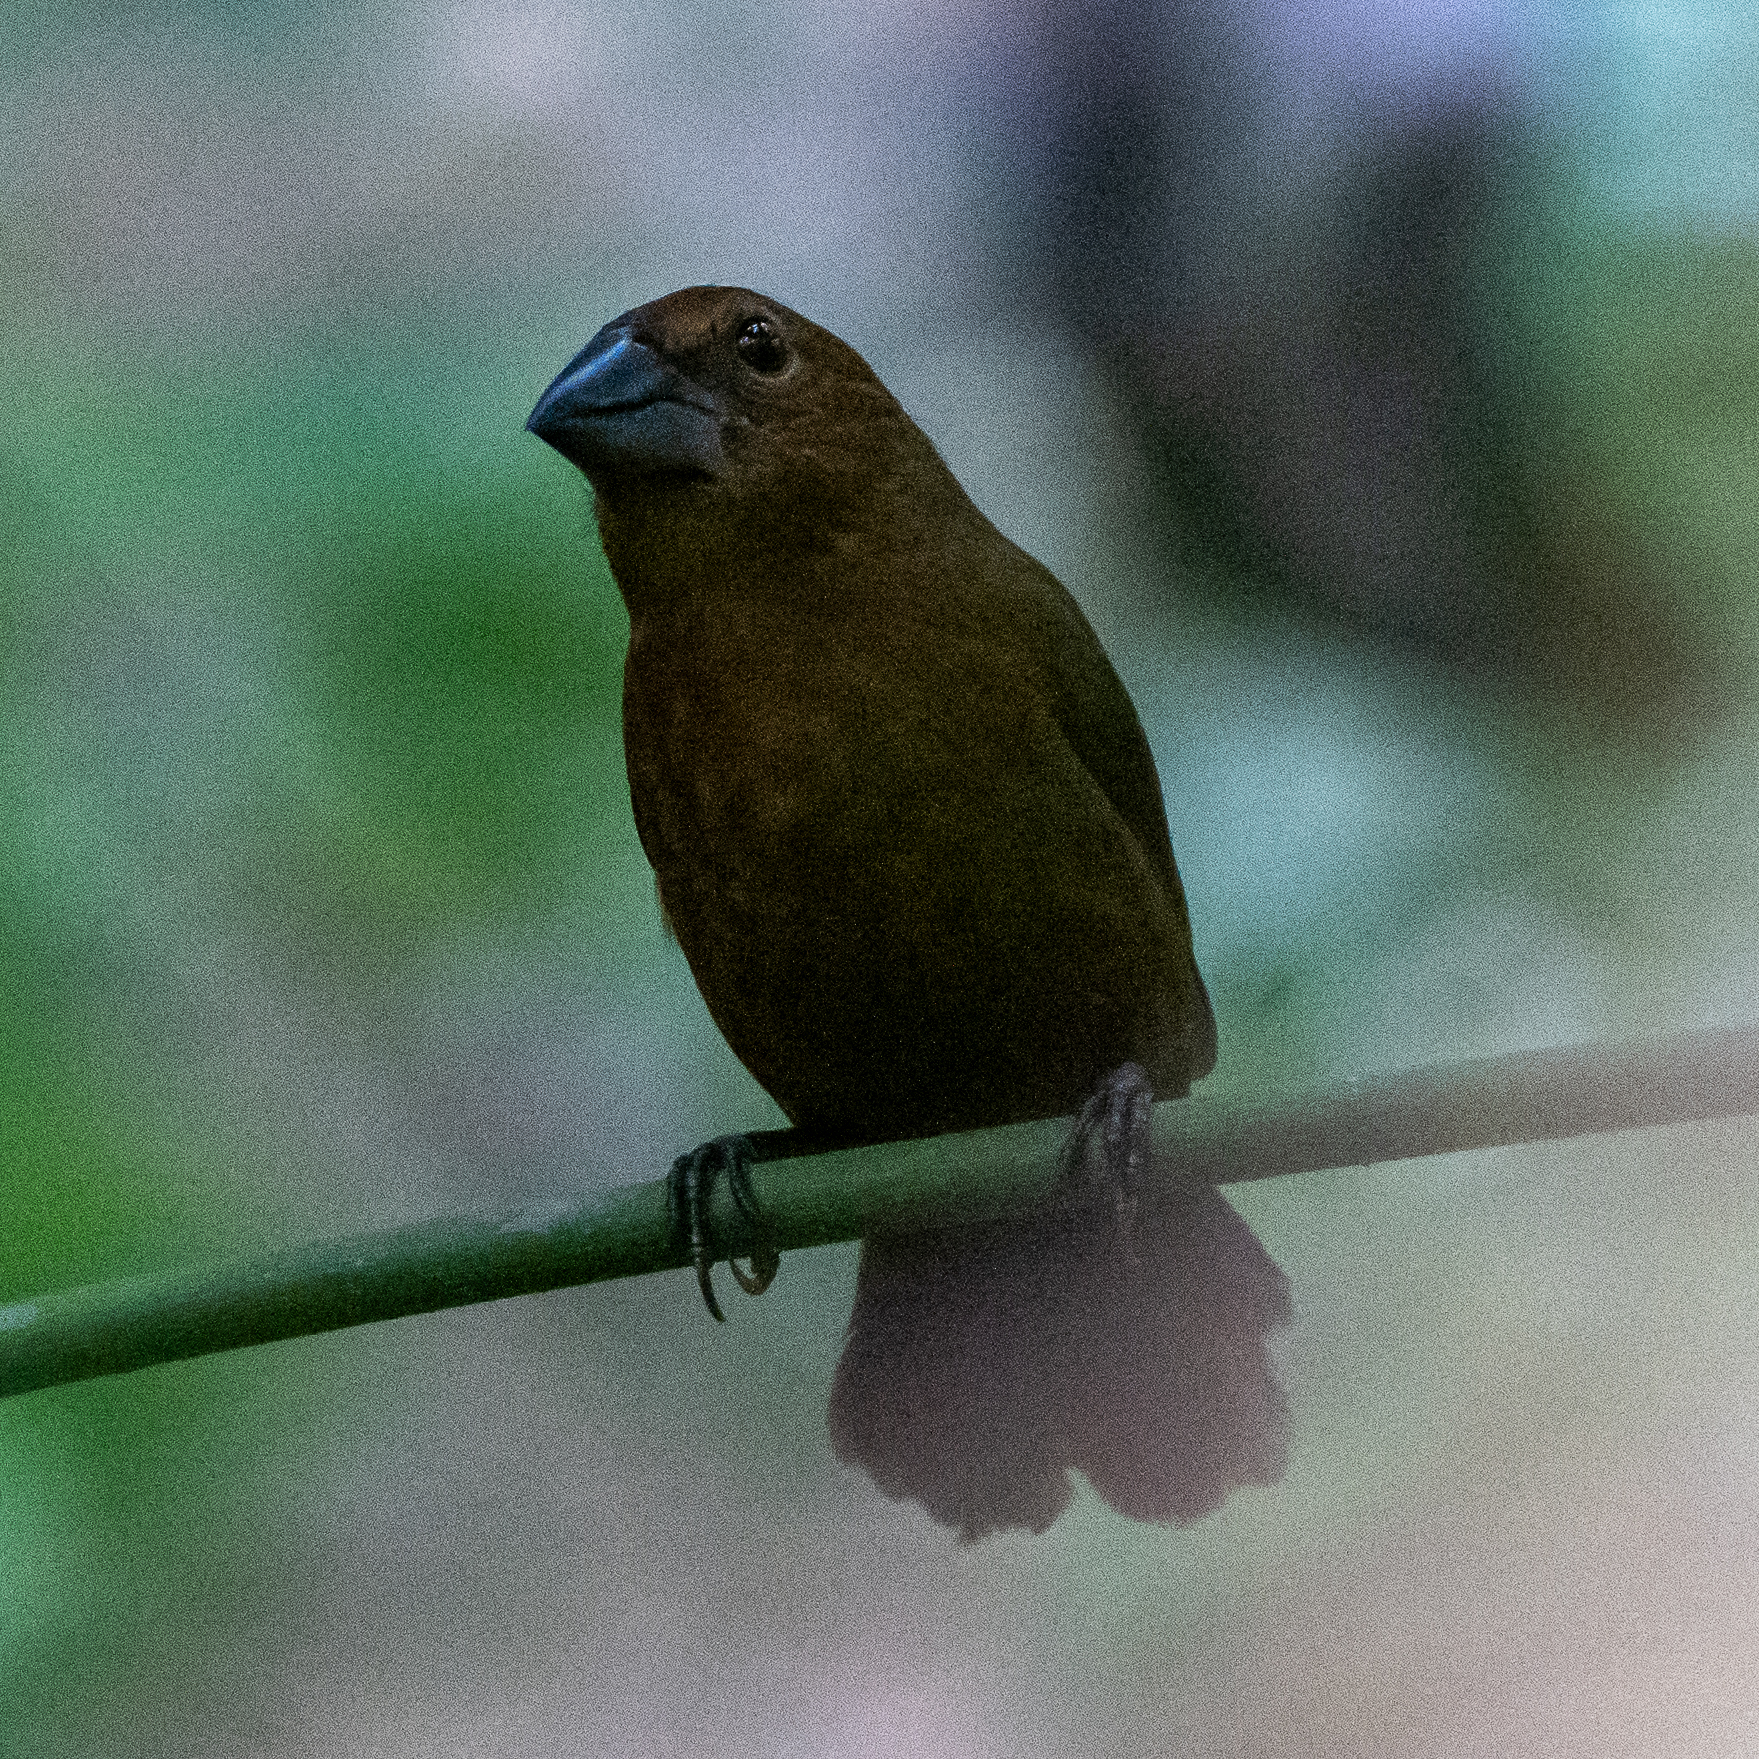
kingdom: Animalia
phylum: Chordata
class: Aves
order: Passeriformes
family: Cardinalidae
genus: Cyanocompsa
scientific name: Cyanocompsa cyanoides
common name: Blue-black grosbeak
